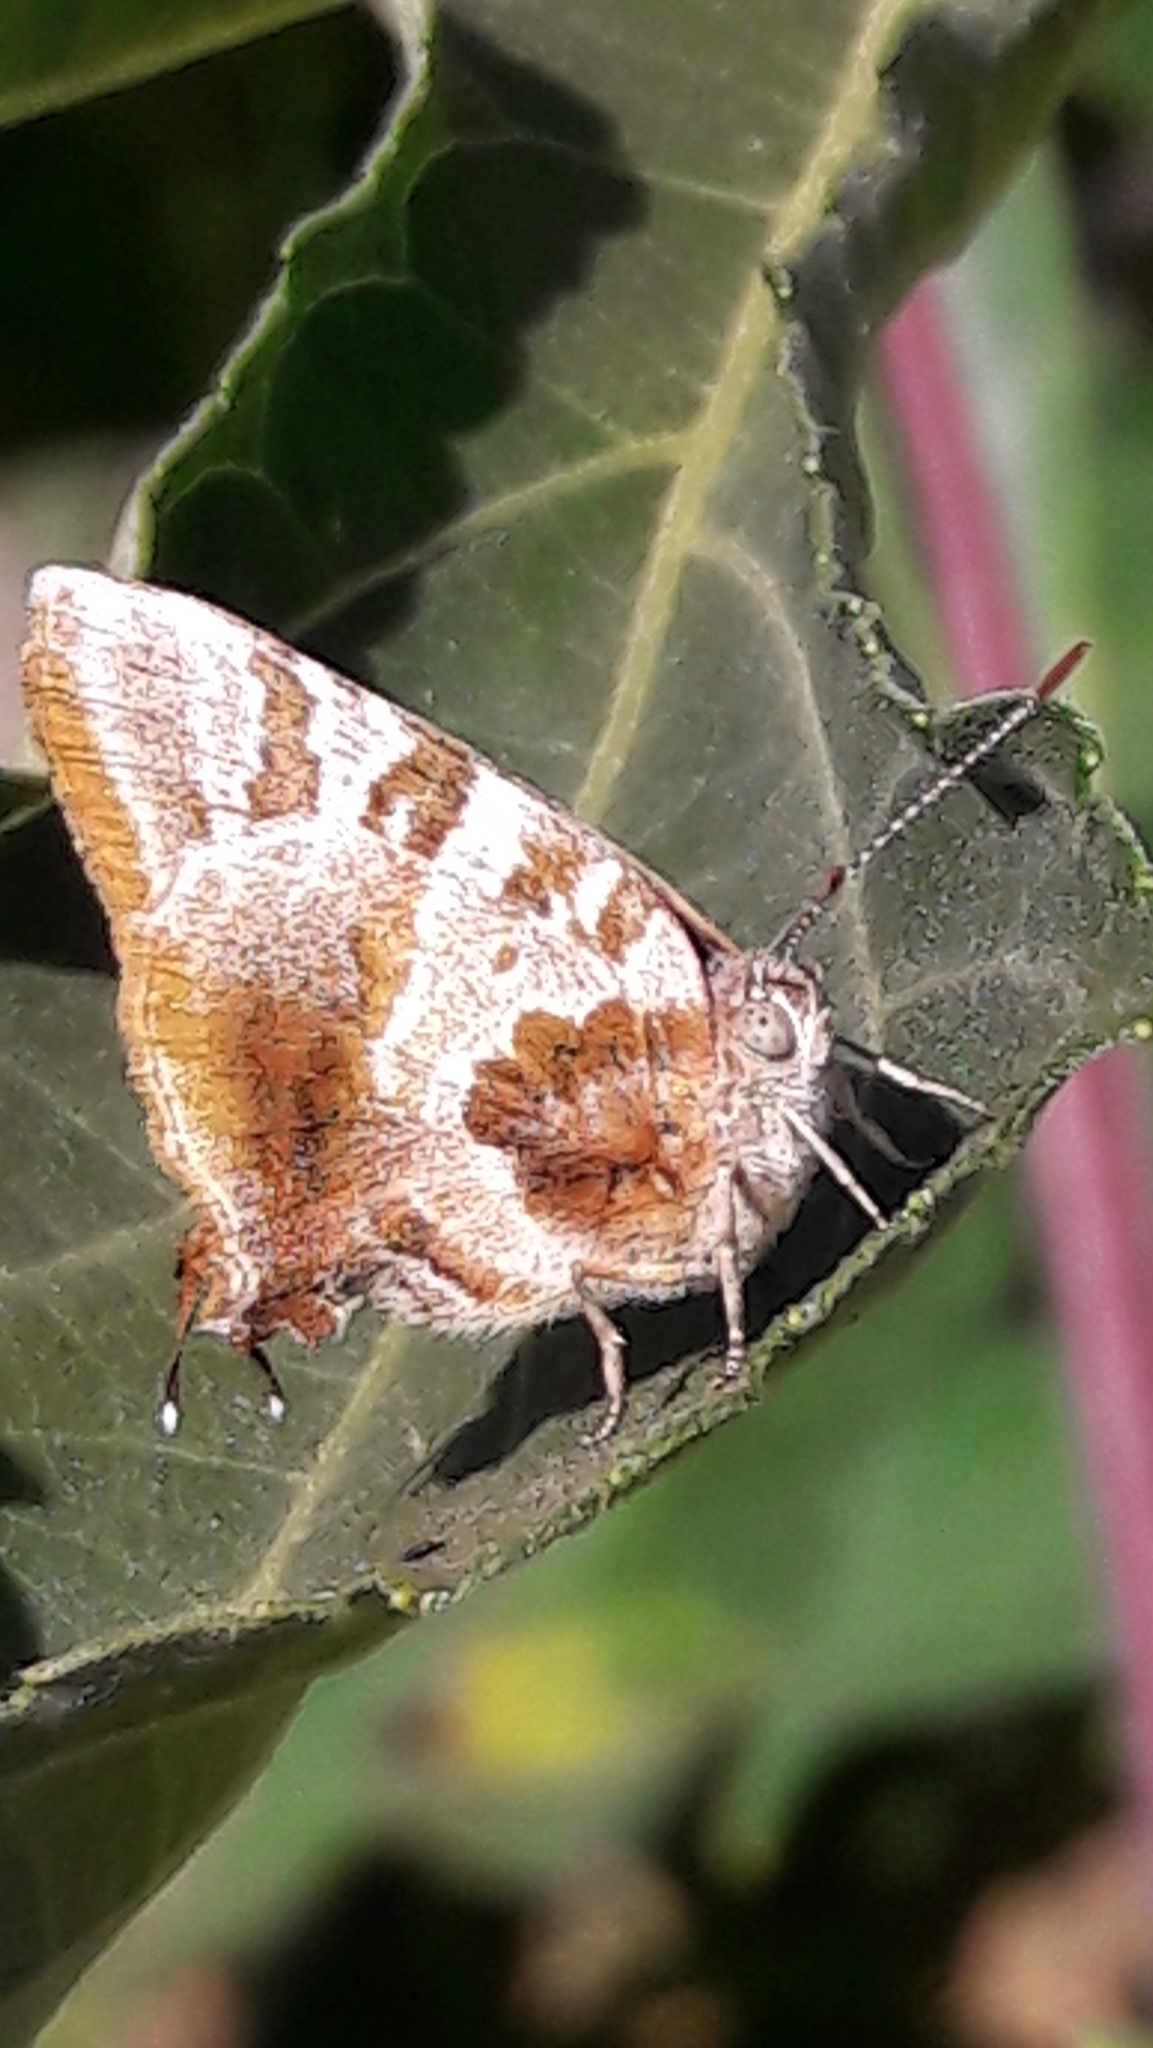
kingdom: Animalia
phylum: Arthropoda
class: Insecta
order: Lepidoptera
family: Lycaenidae
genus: Arawacus
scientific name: Arawacus ellida
